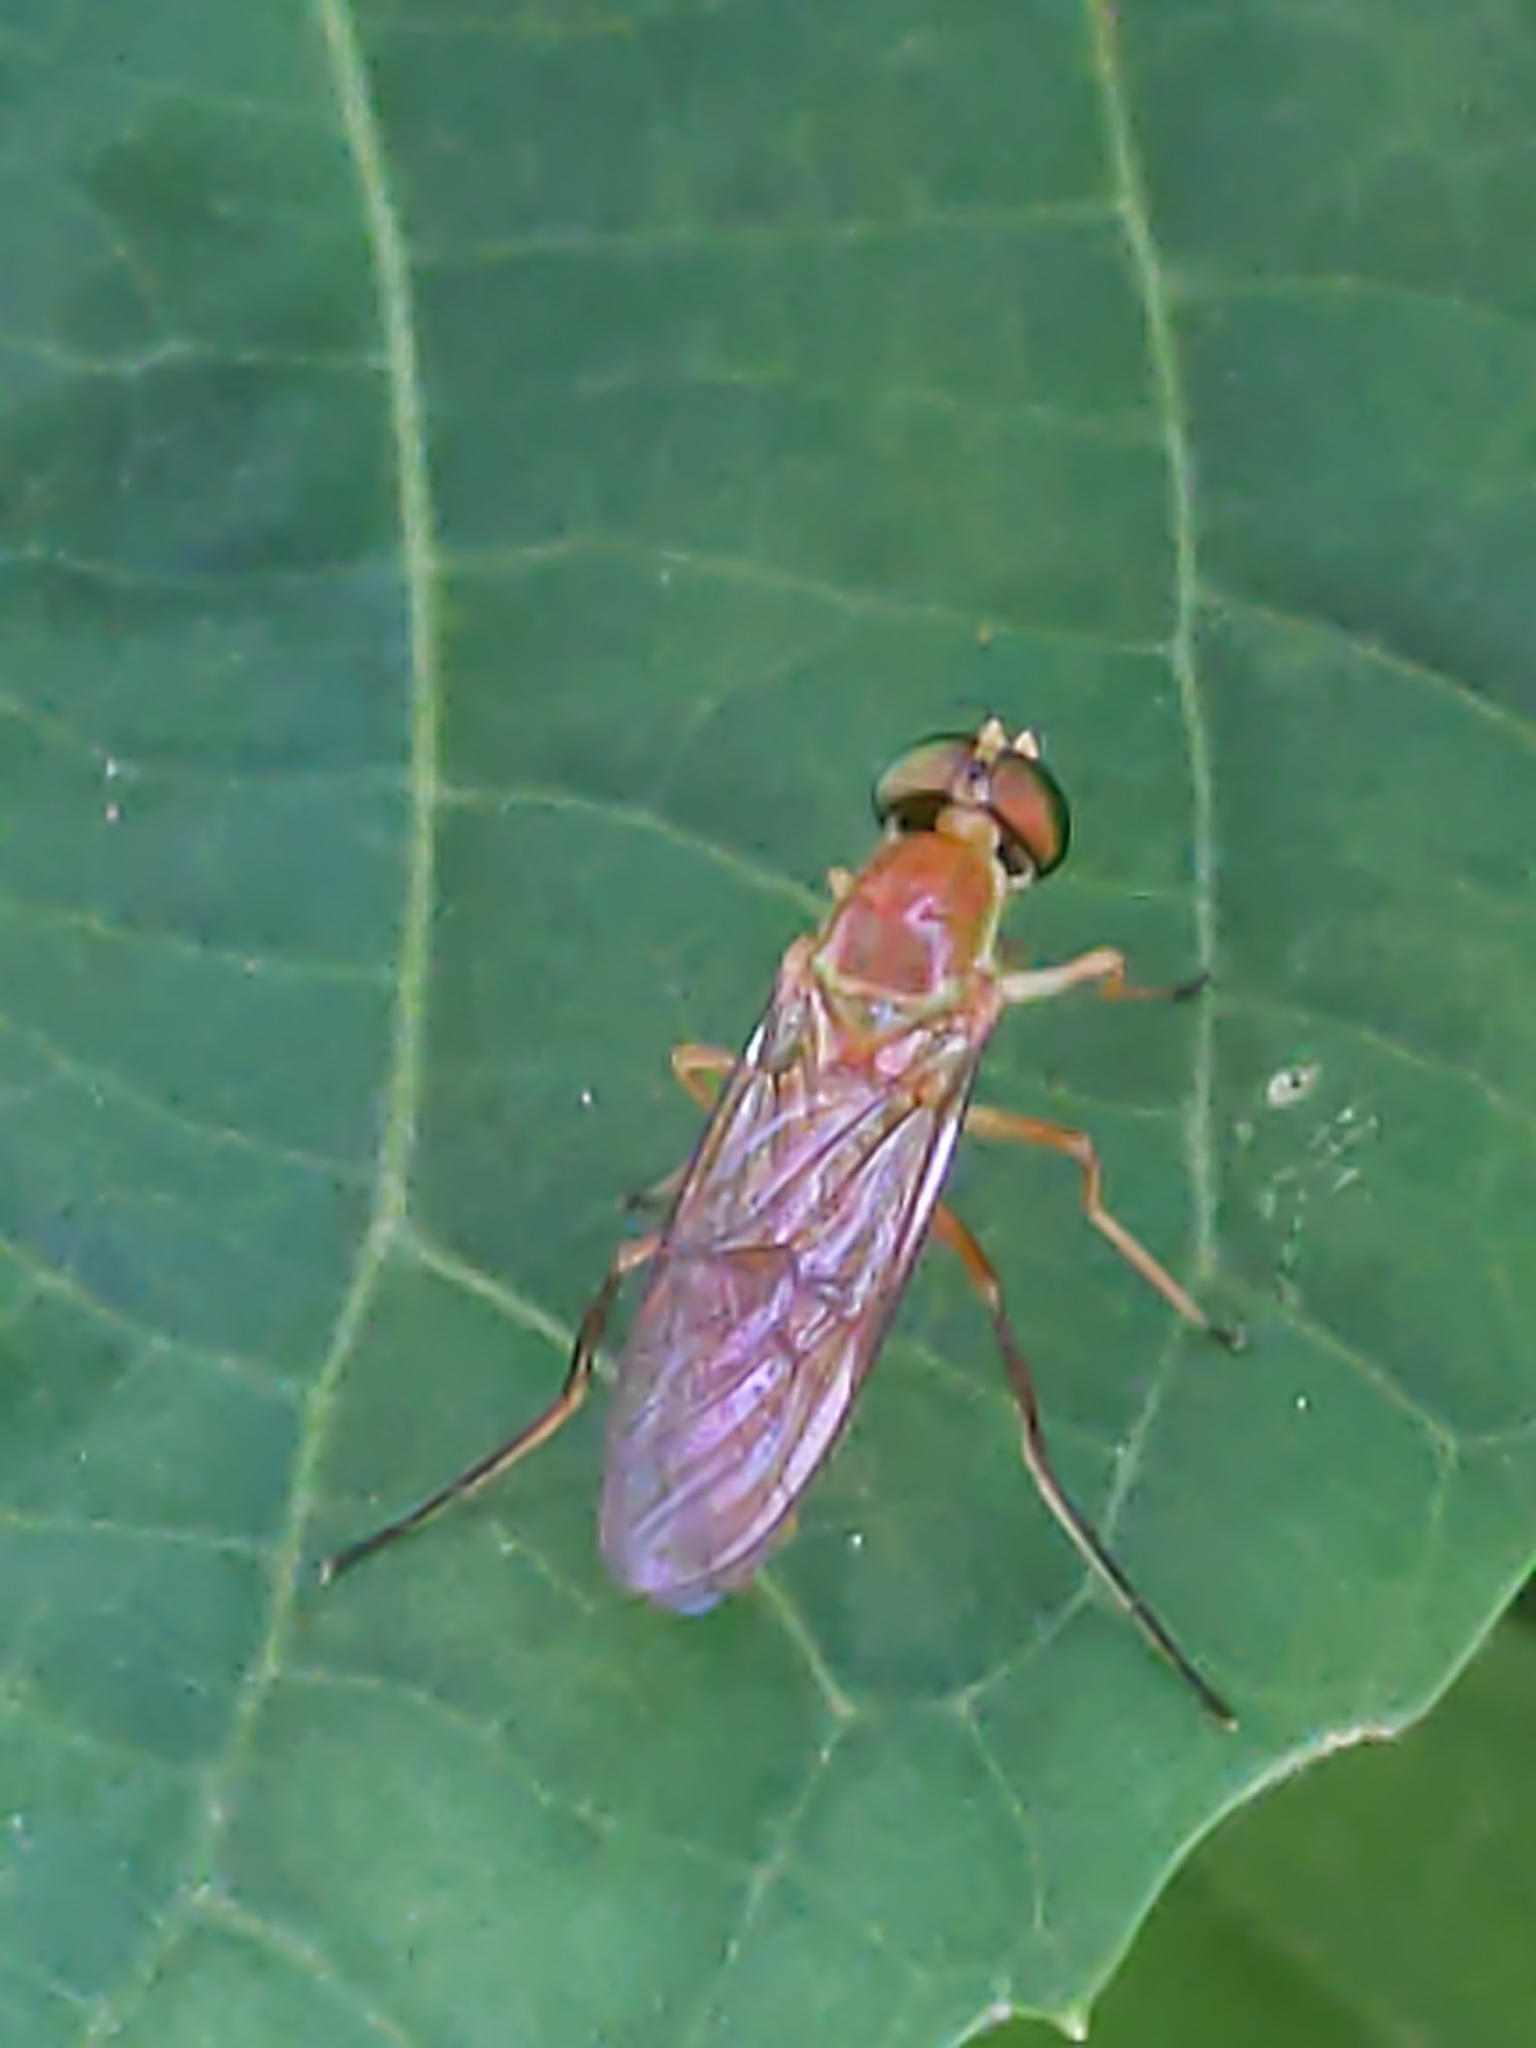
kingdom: Animalia
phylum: Arthropoda
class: Insecta
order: Diptera
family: Stratiomyidae
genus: Ptecticus
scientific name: Ptecticus trivittatus
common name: Compost fly
